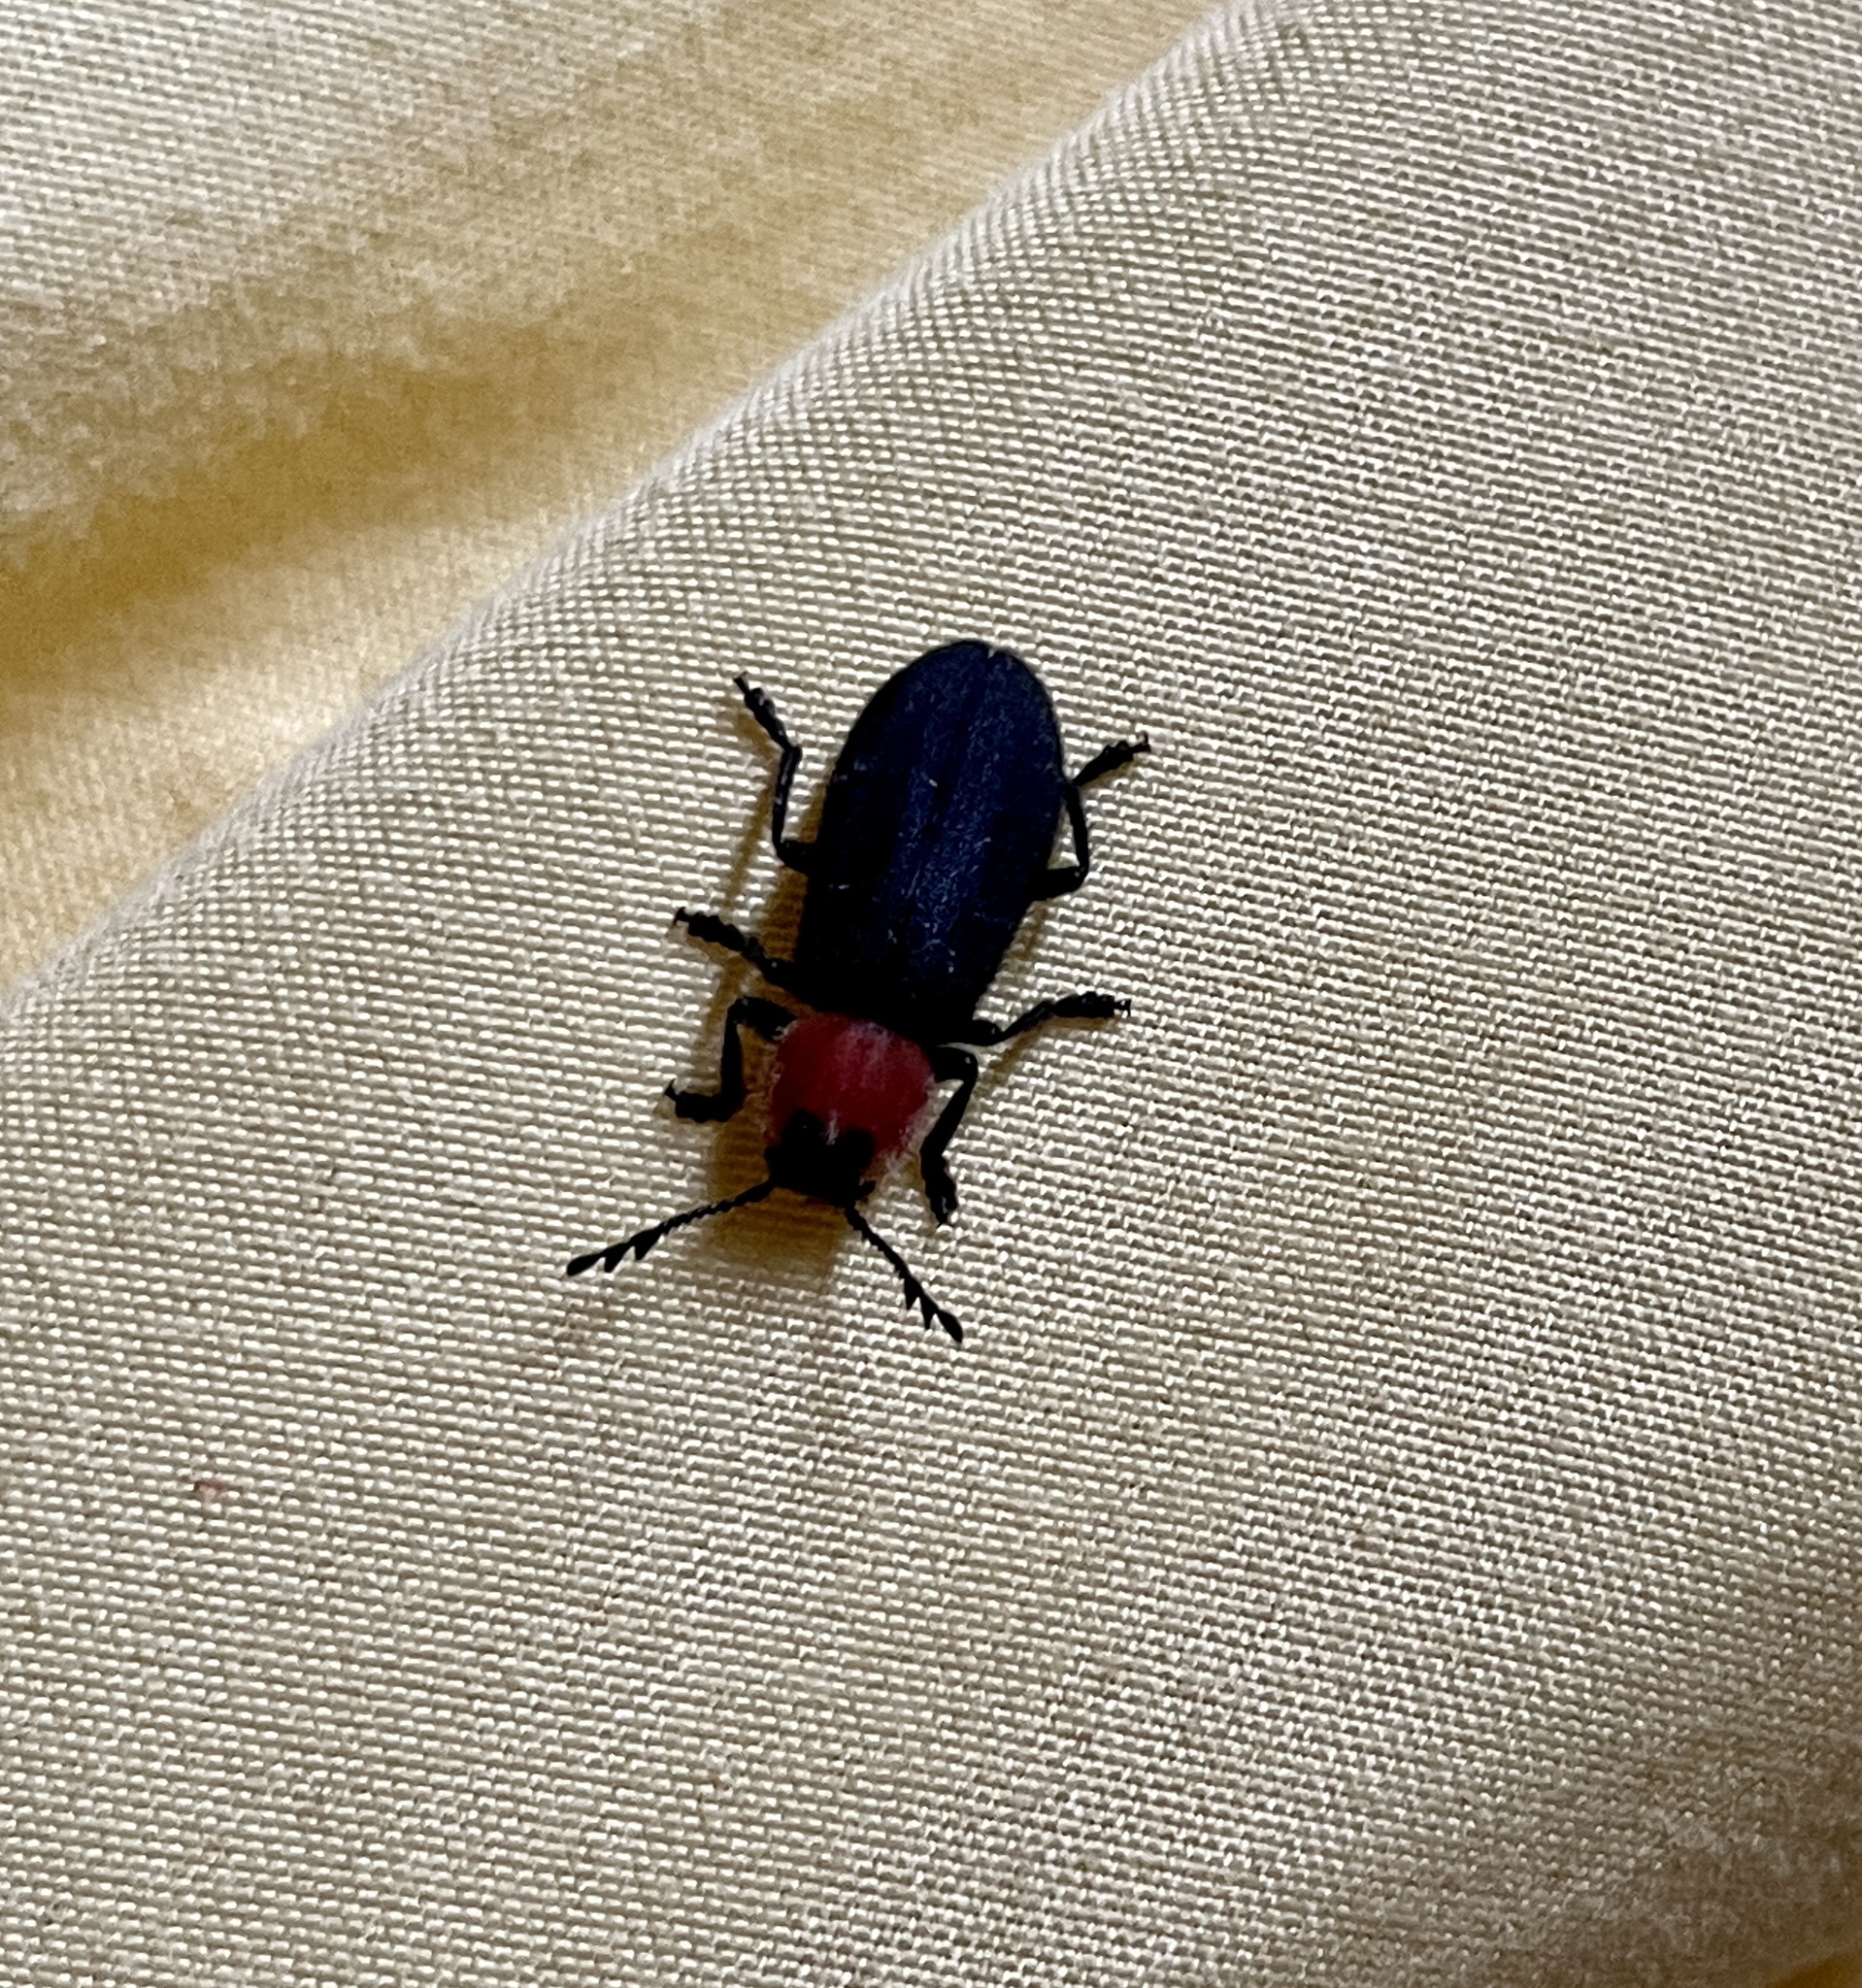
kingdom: Animalia
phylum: Arthropoda
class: Insecta
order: Coleoptera
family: Cleridae
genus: Chariessa
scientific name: Chariessa texana
